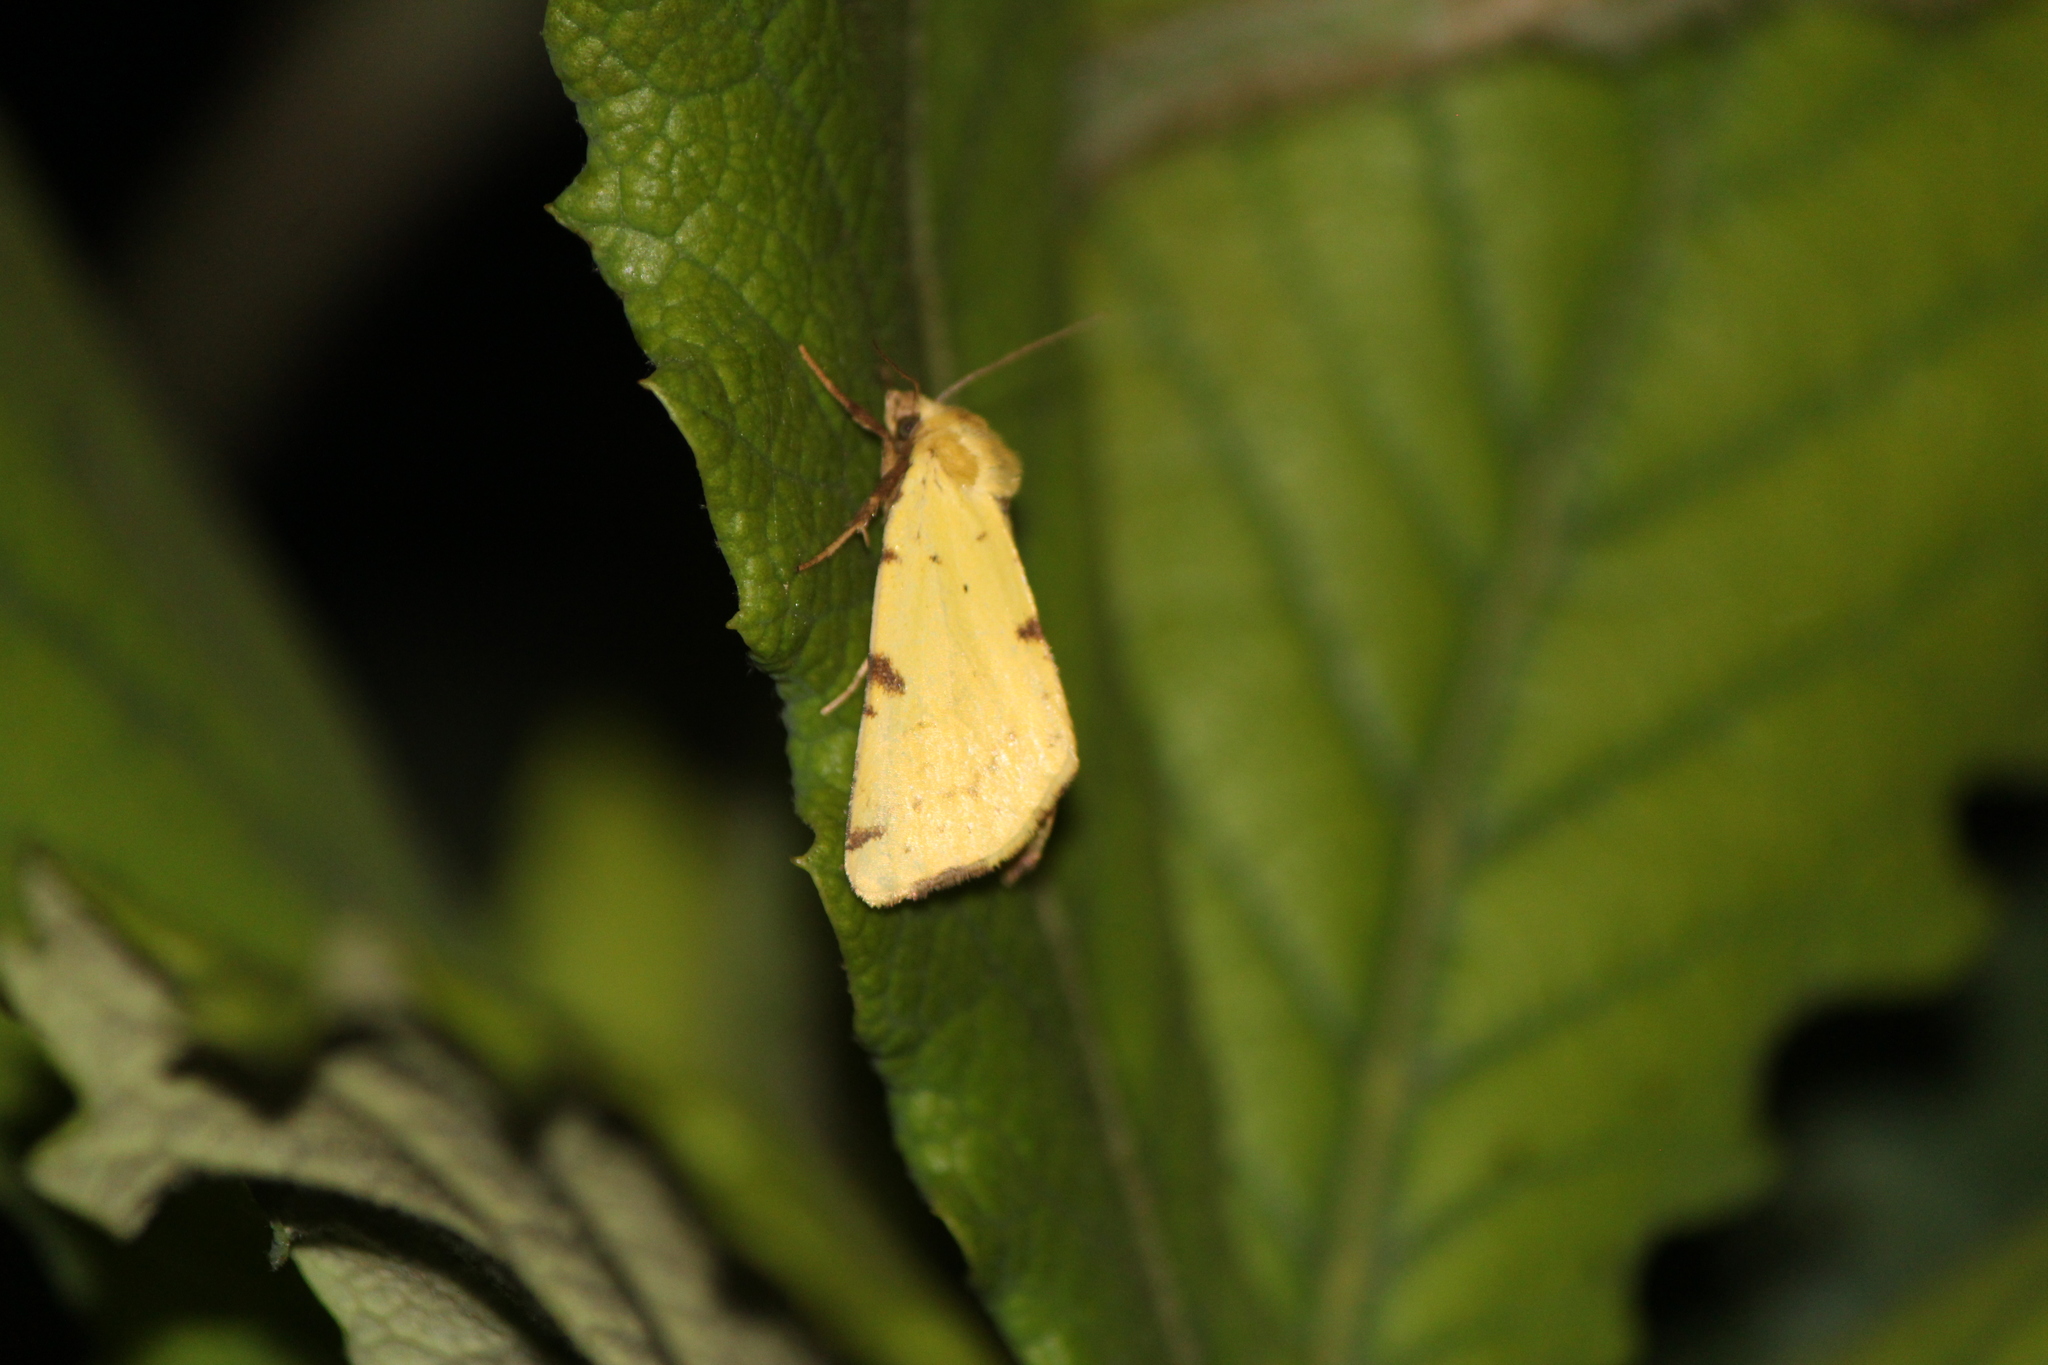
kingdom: Animalia
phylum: Arthropoda
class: Insecta
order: Lepidoptera
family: Noctuidae
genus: Azenia
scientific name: Azenia perflava
